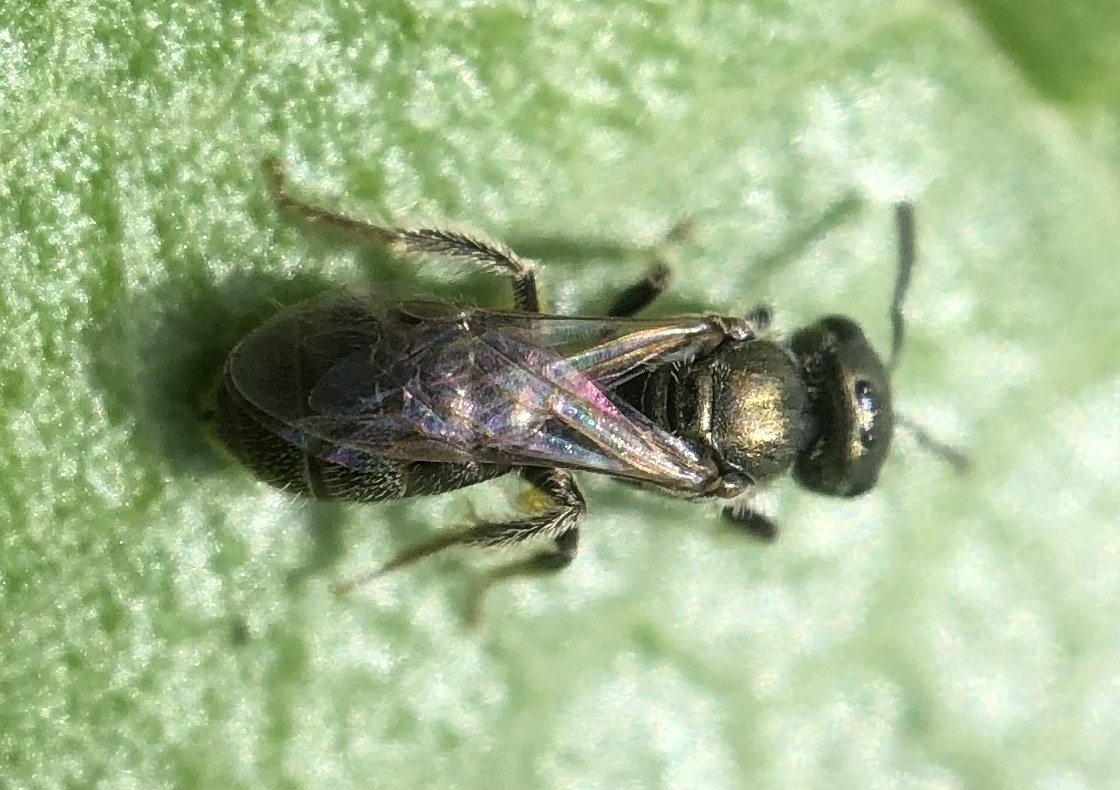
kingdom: Animalia
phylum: Arthropoda
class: Insecta
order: Hymenoptera
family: Halictidae
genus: Lasioglossum
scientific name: Lasioglossum imitatum
